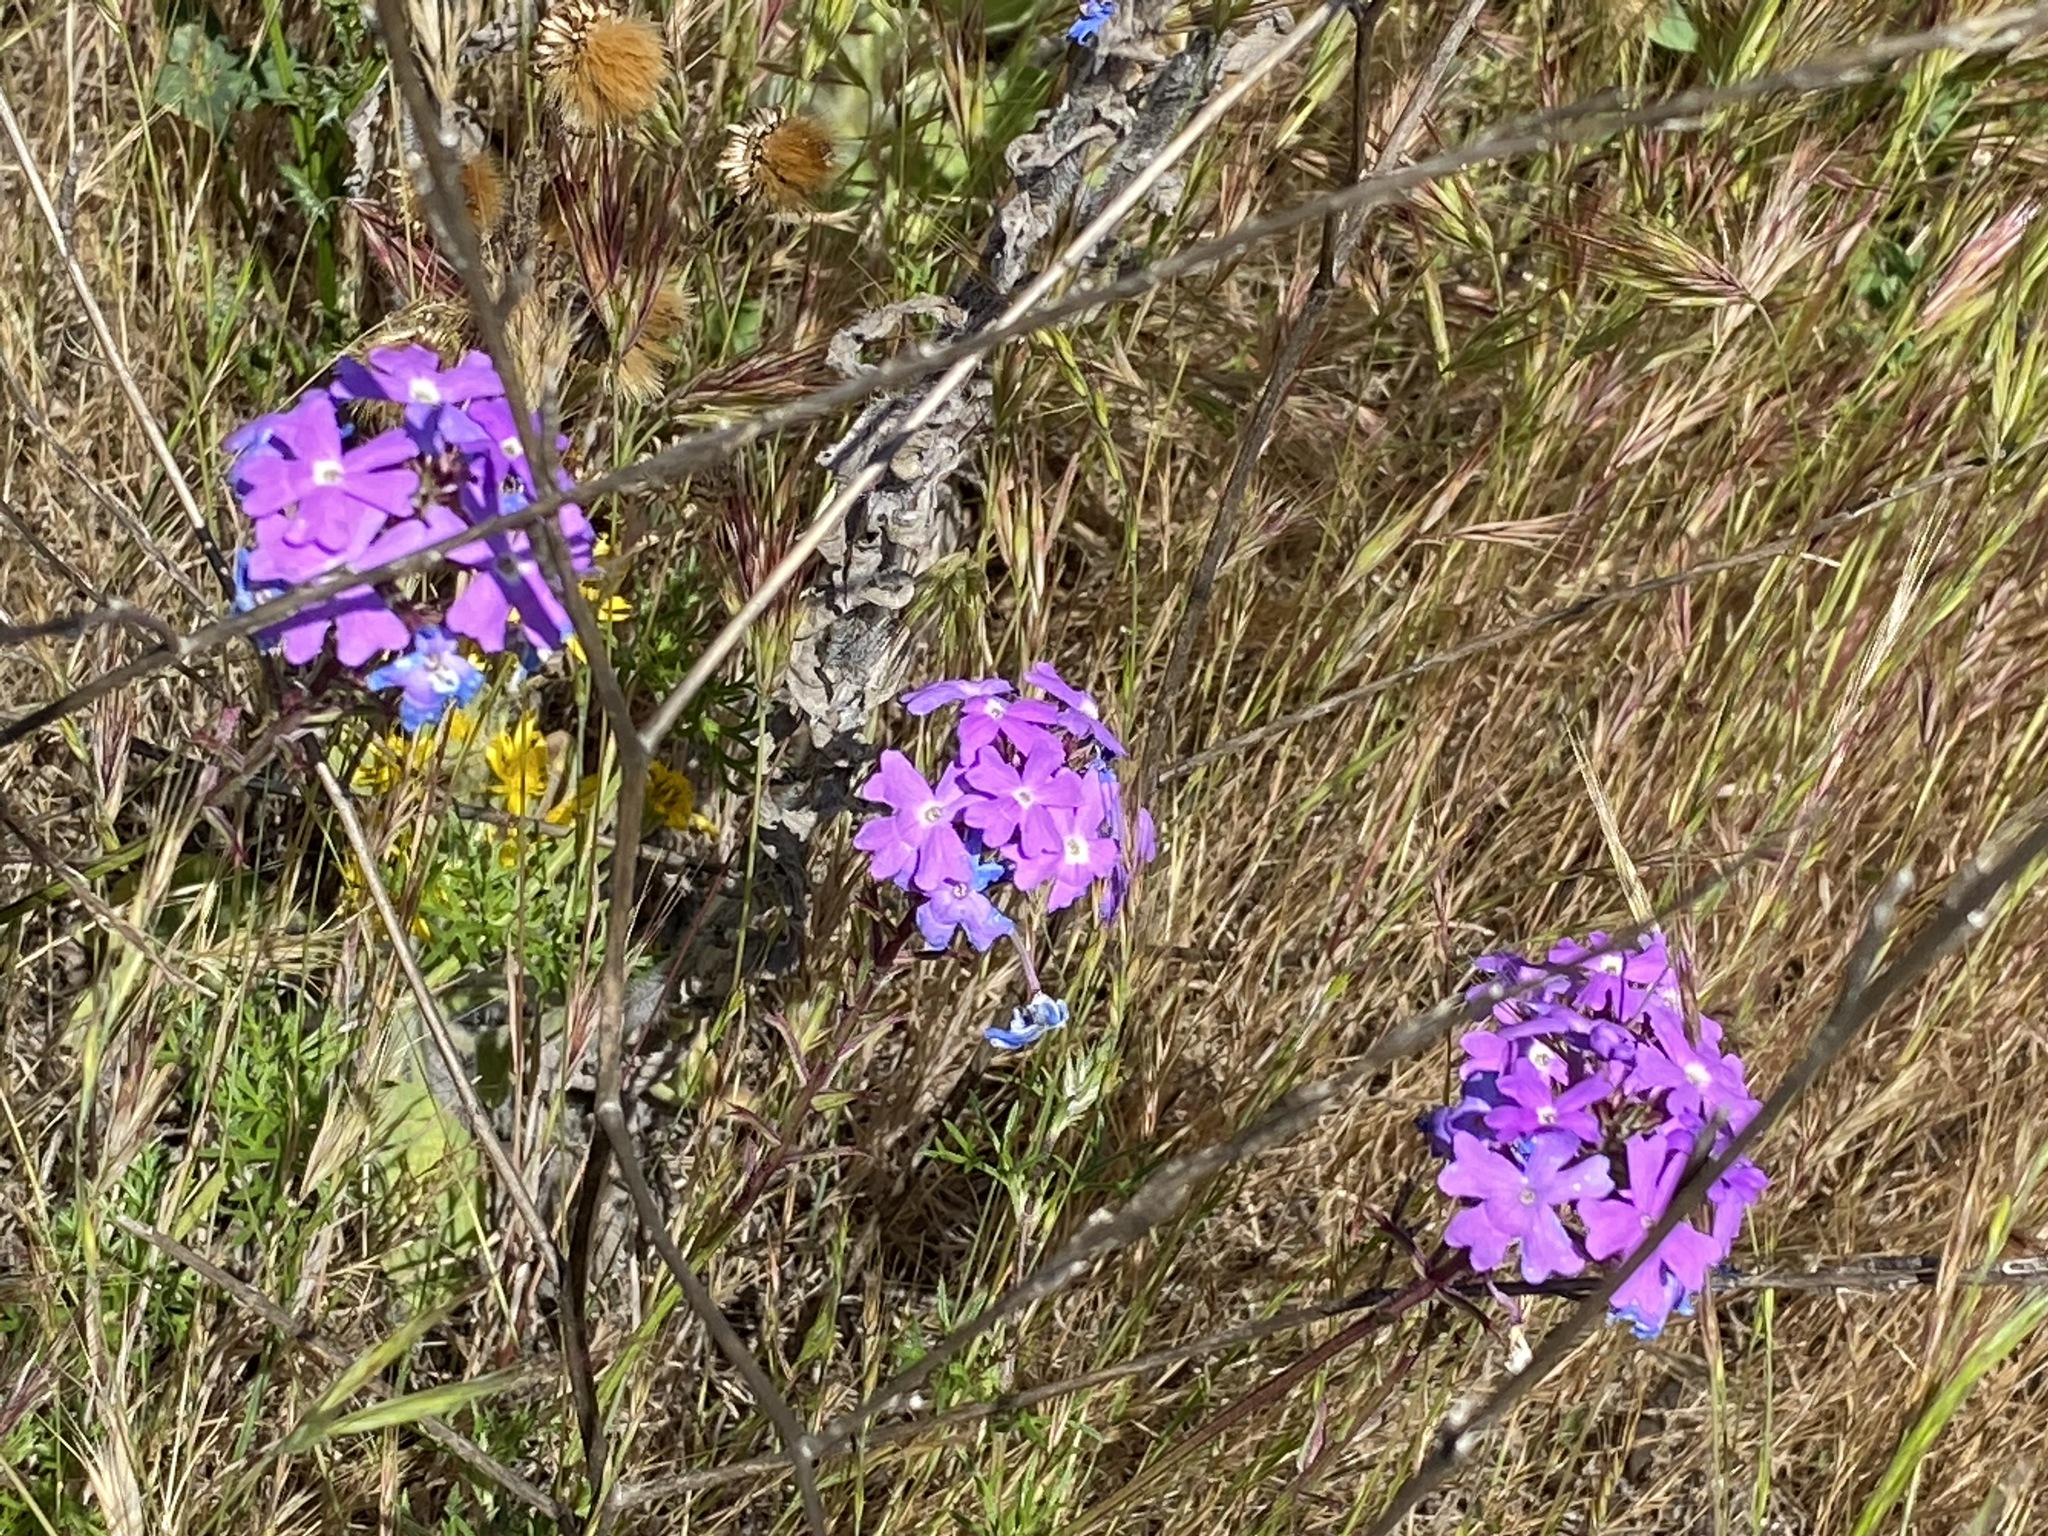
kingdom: Plantae
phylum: Tracheophyta
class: Magnoliopsida
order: Lamiales
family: Verbenaceae
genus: Verbena
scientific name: Verbena
